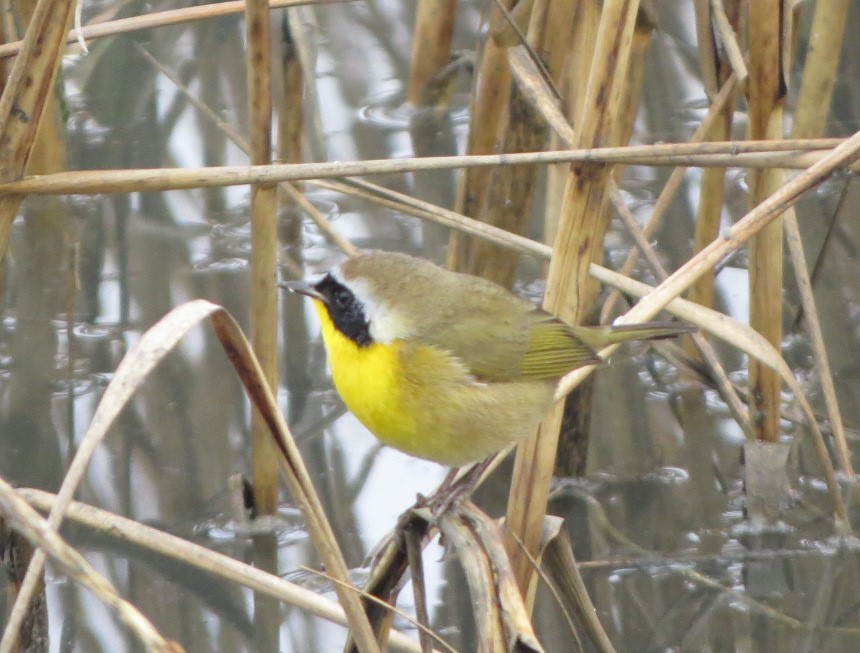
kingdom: Animalia
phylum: Chordata
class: Aves
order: Passeriformes
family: Parulidae
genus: Geothlypis
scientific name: Geothlypis trichas
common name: Common yellowthroat
